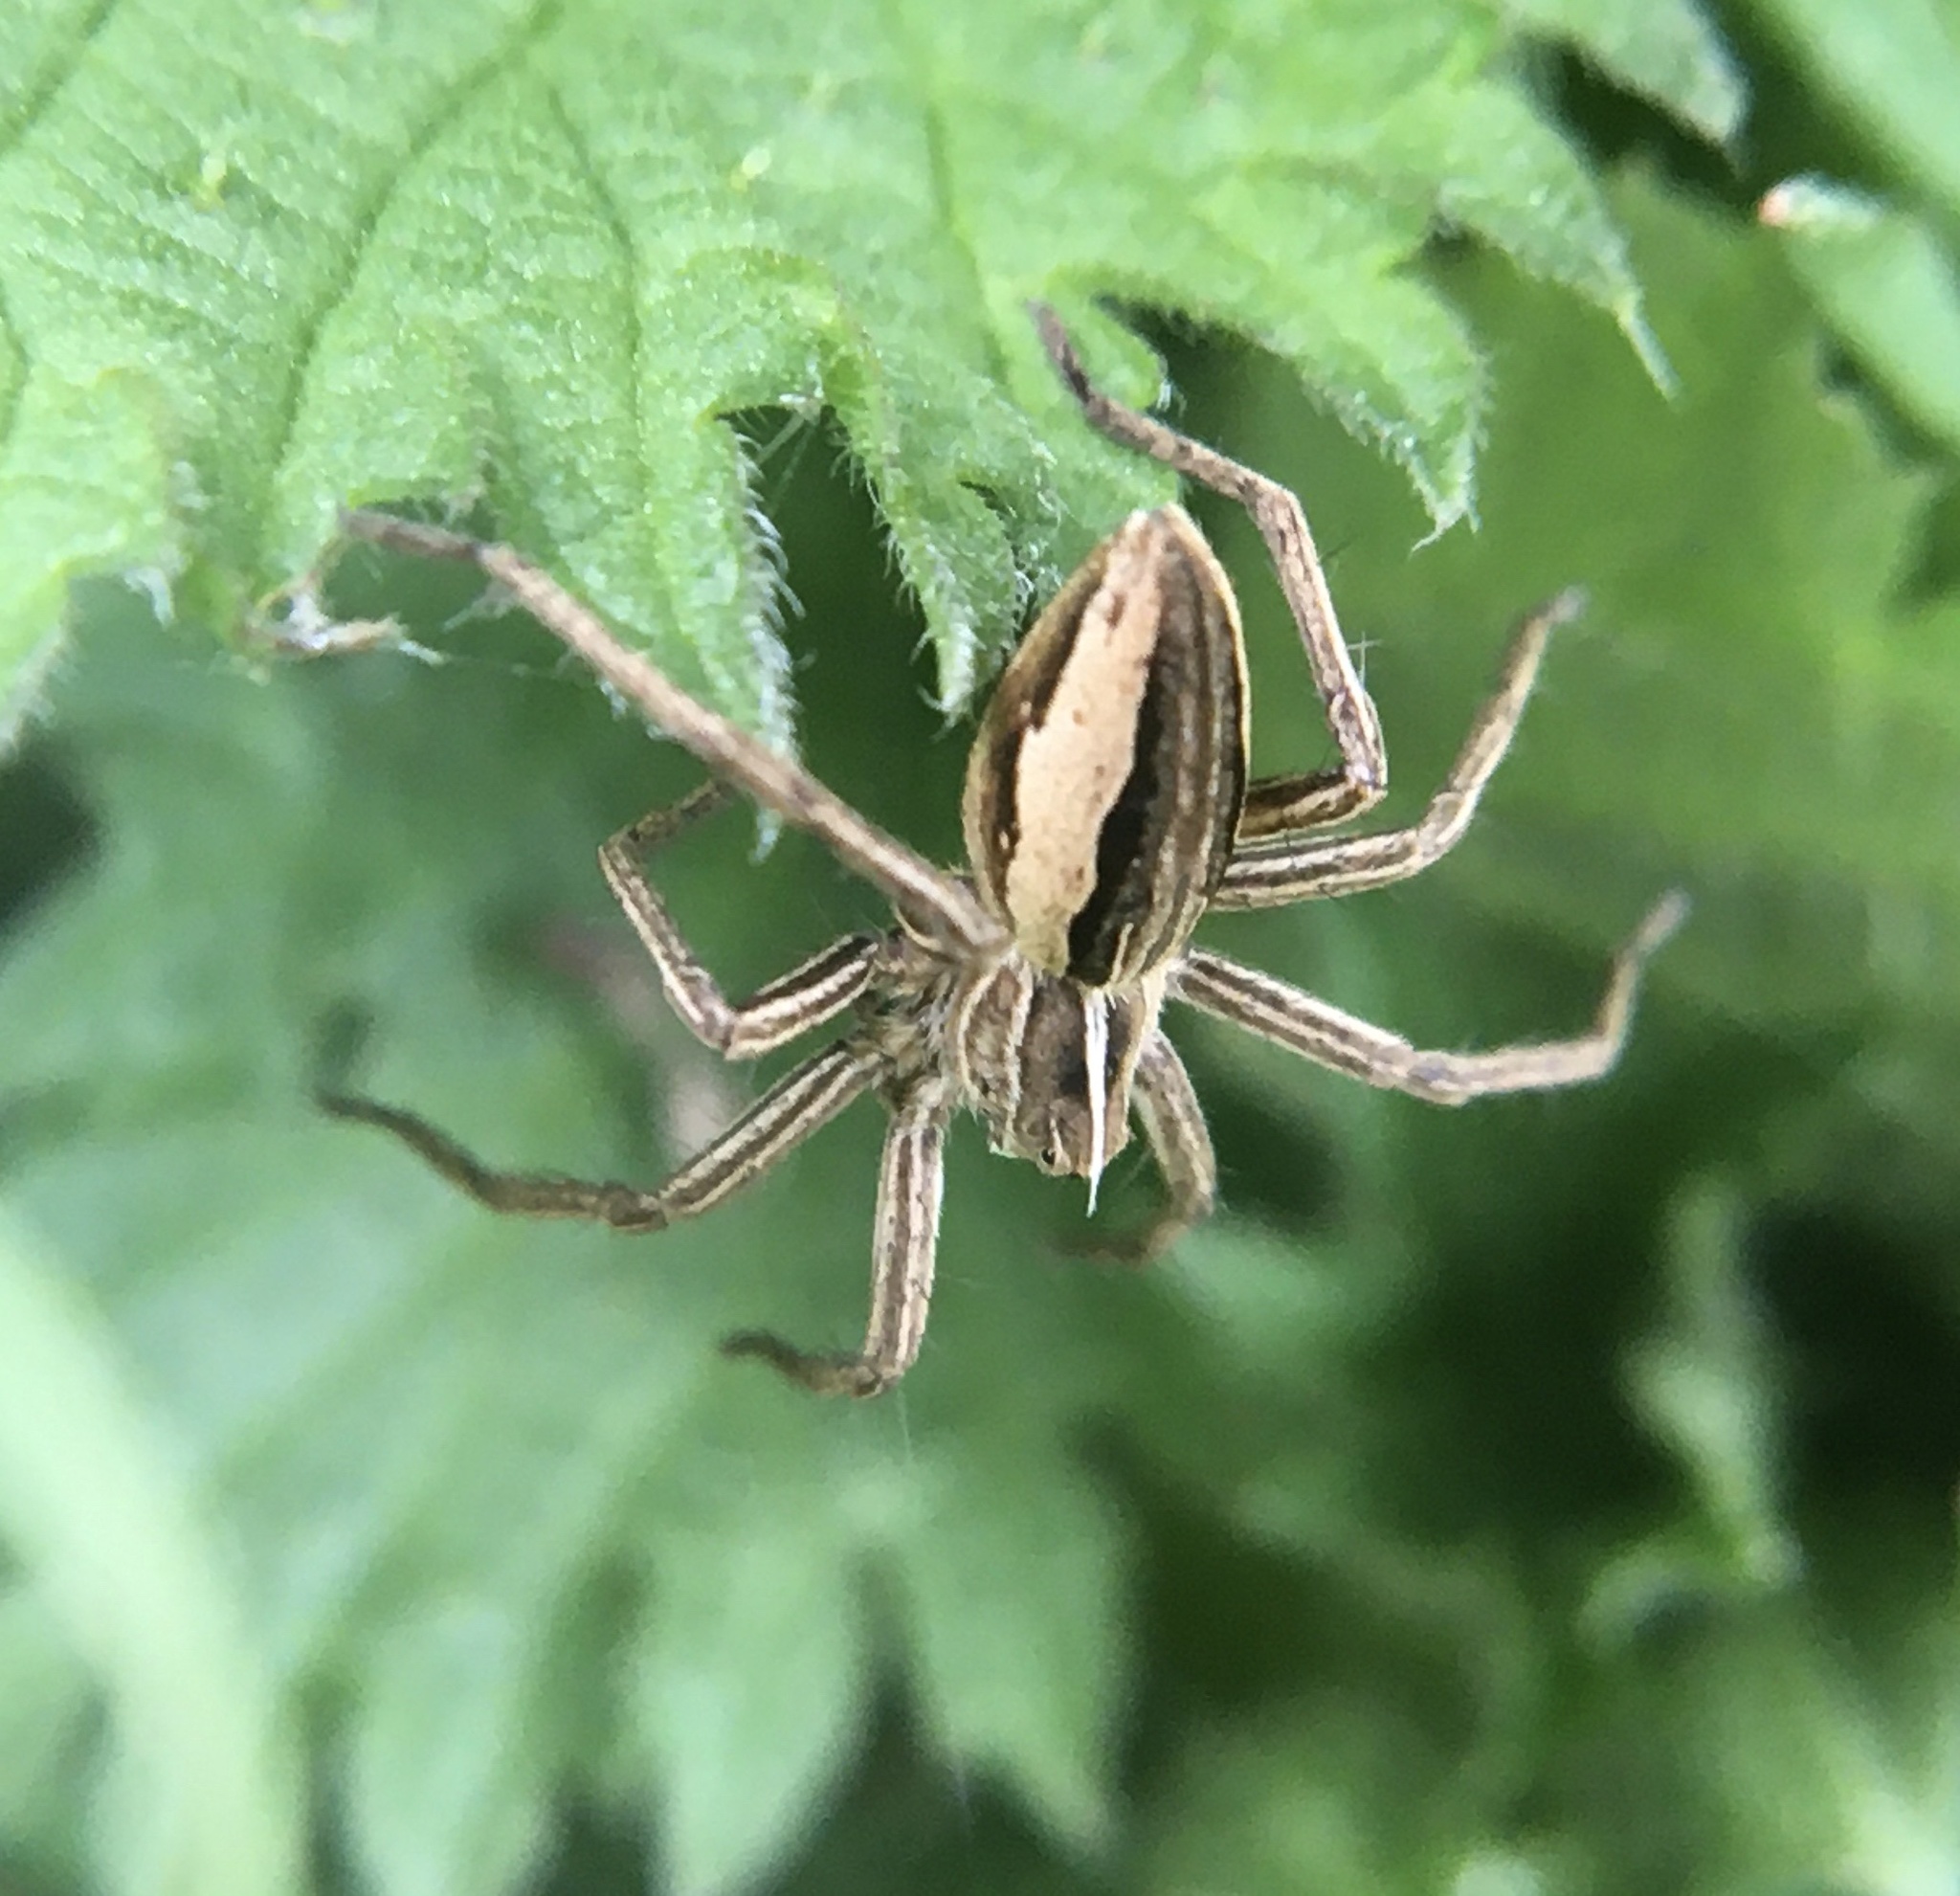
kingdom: Animalia
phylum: Arthropoda
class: Arachnida
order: Araneae
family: Pisauridae
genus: Pisaura
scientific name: Pisaura mirabilis
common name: Tent spider
